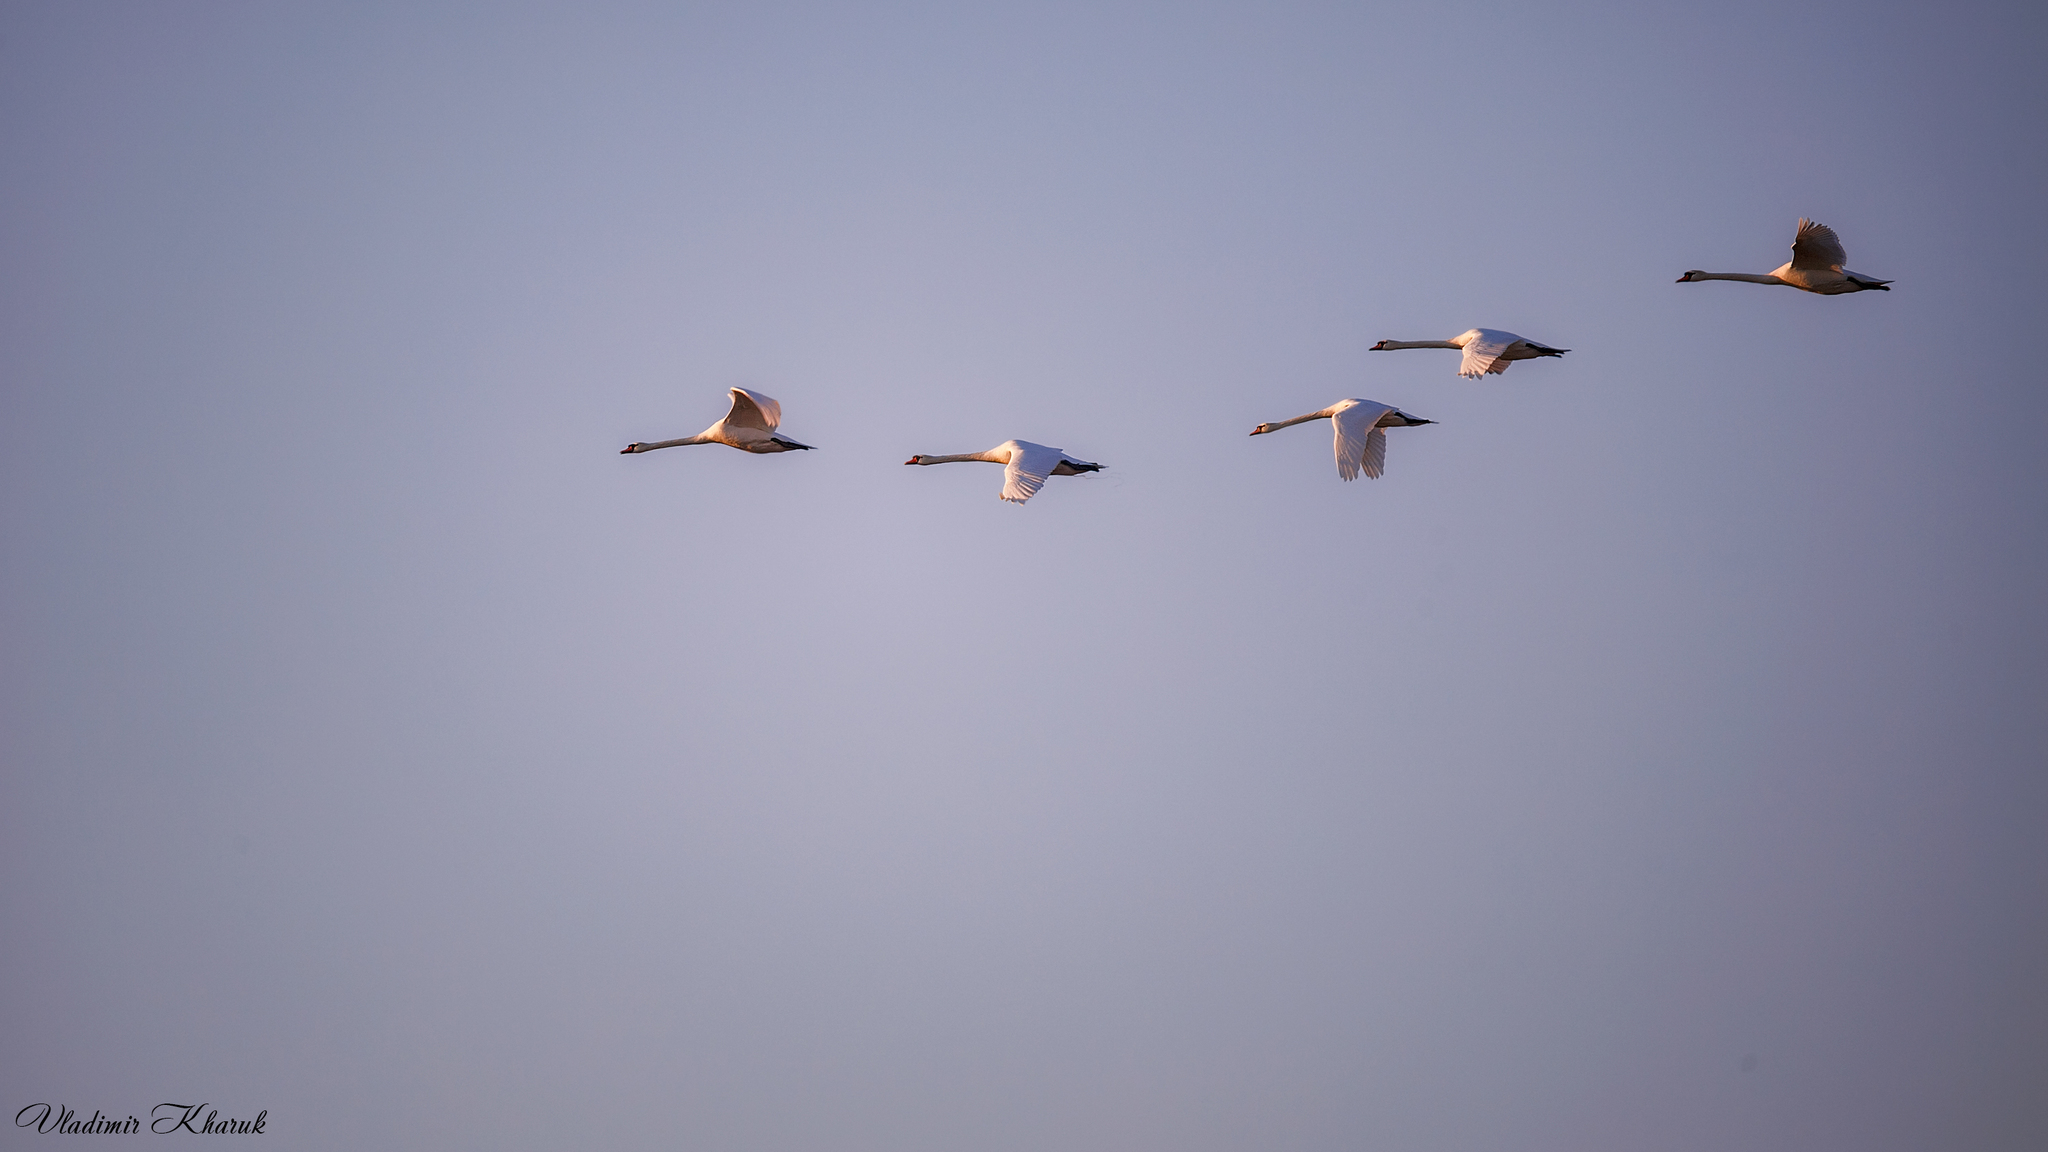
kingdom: Animalia
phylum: Chordata
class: Aves
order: Anseriformes
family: Anatidae
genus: Cygnus
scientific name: Cygnus olor
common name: Mute swan
